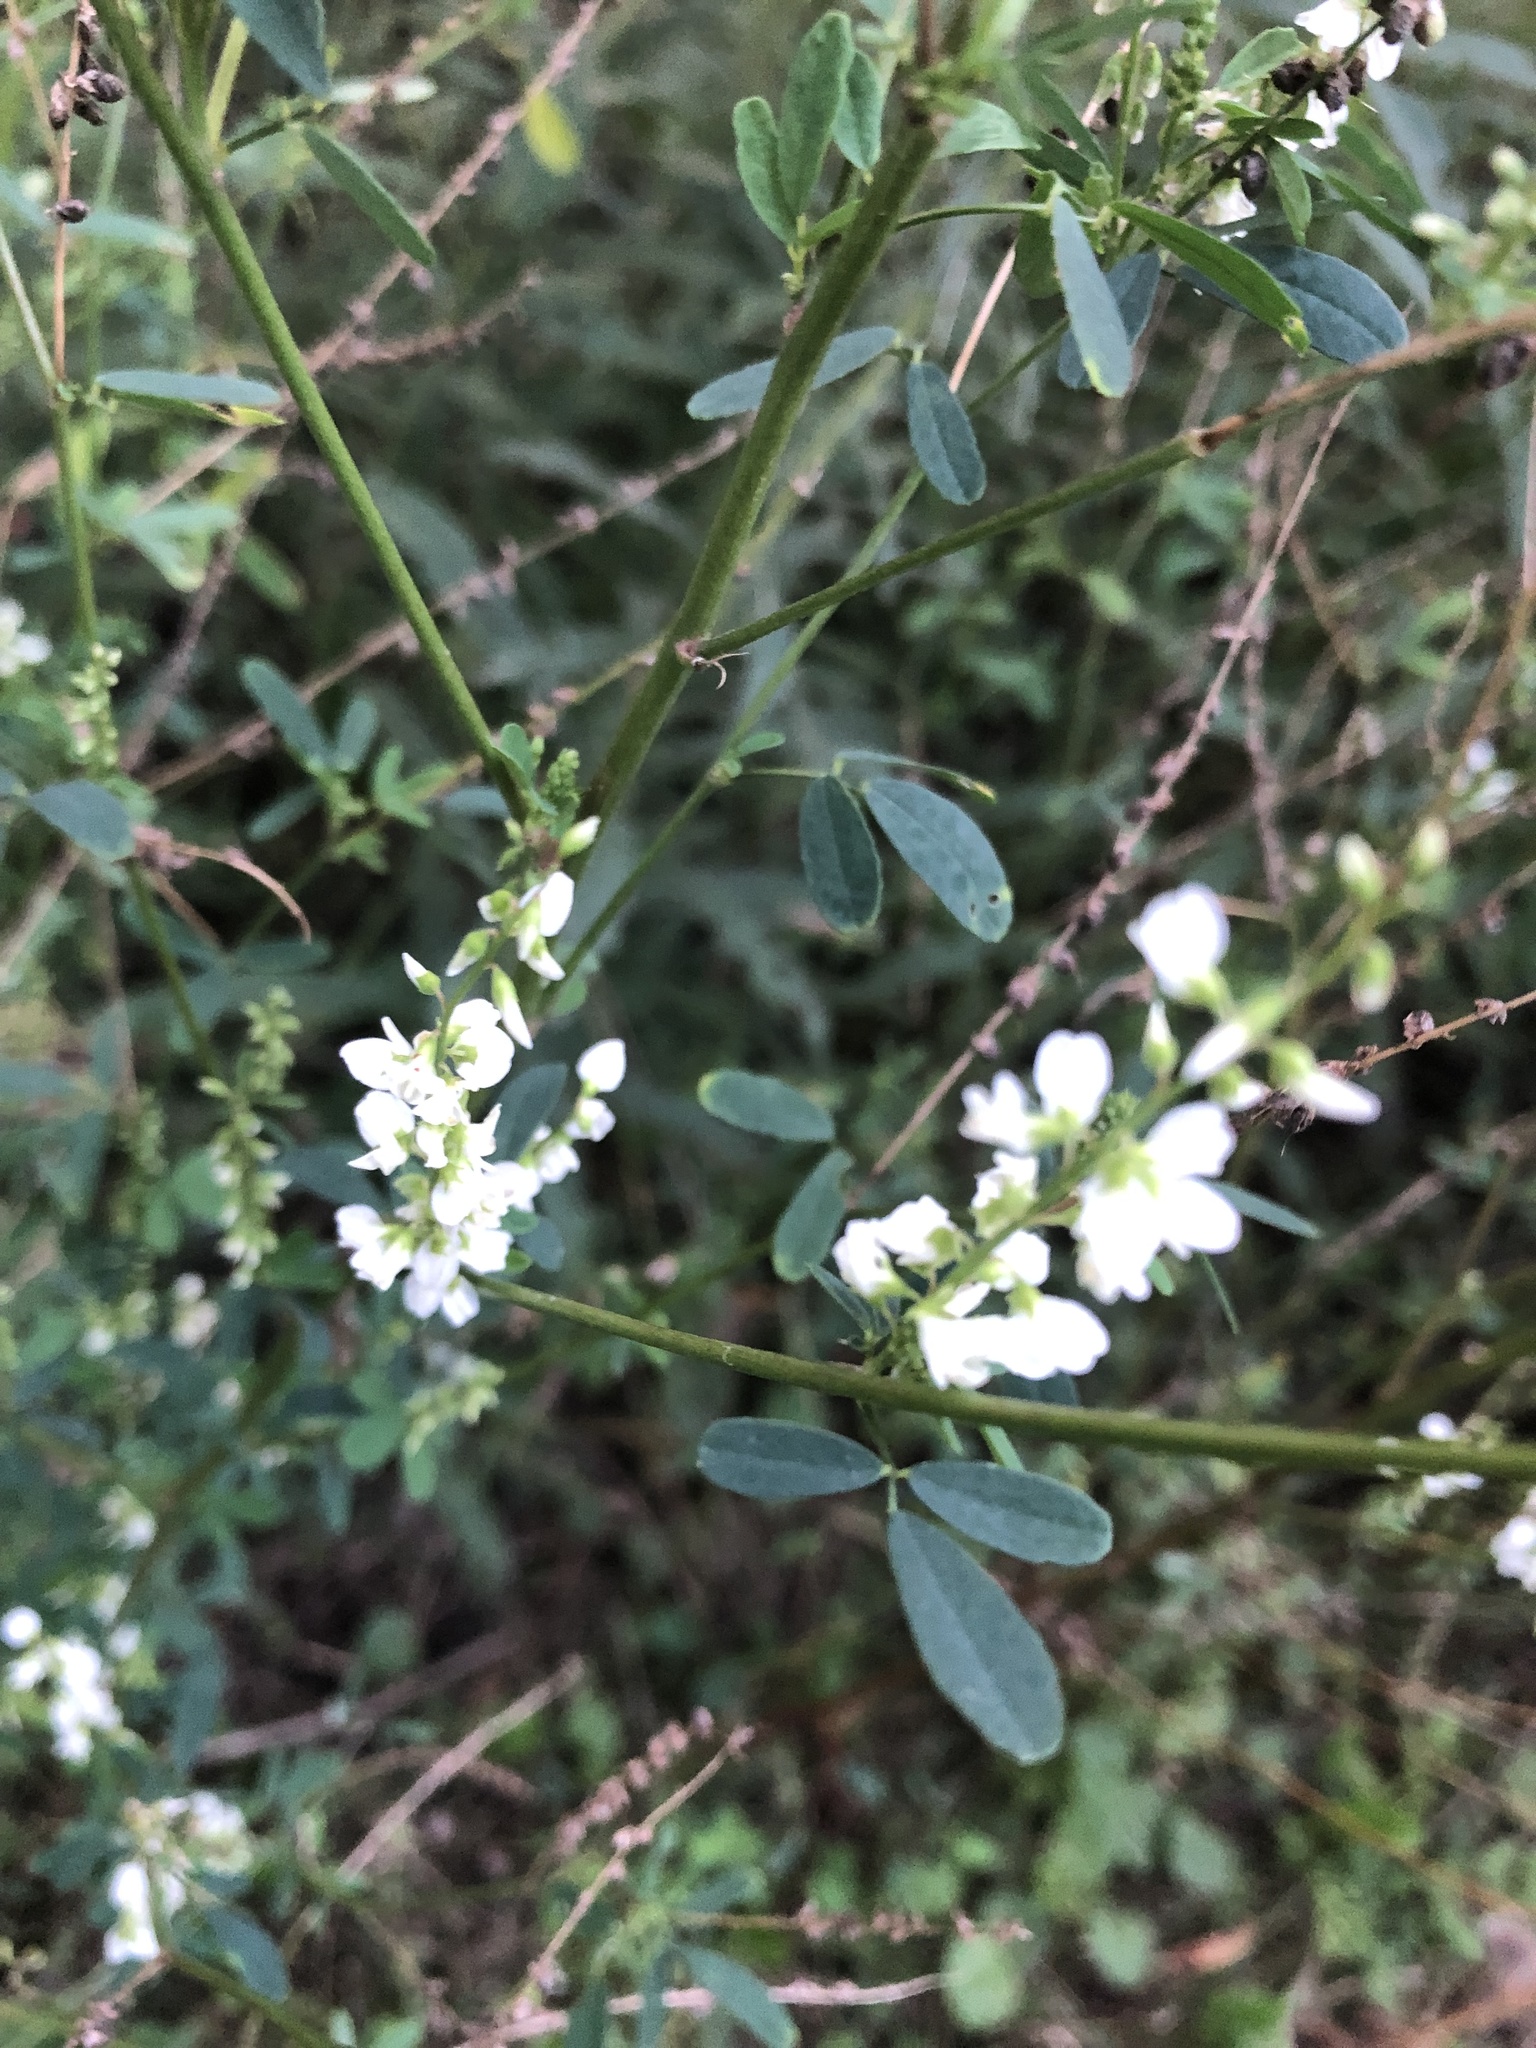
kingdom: Plantae
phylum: Tracheophyta
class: Magnoliopsida
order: Fabales
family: Fabaceae
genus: Melilotus
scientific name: Melilotus albus
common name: White melilot
